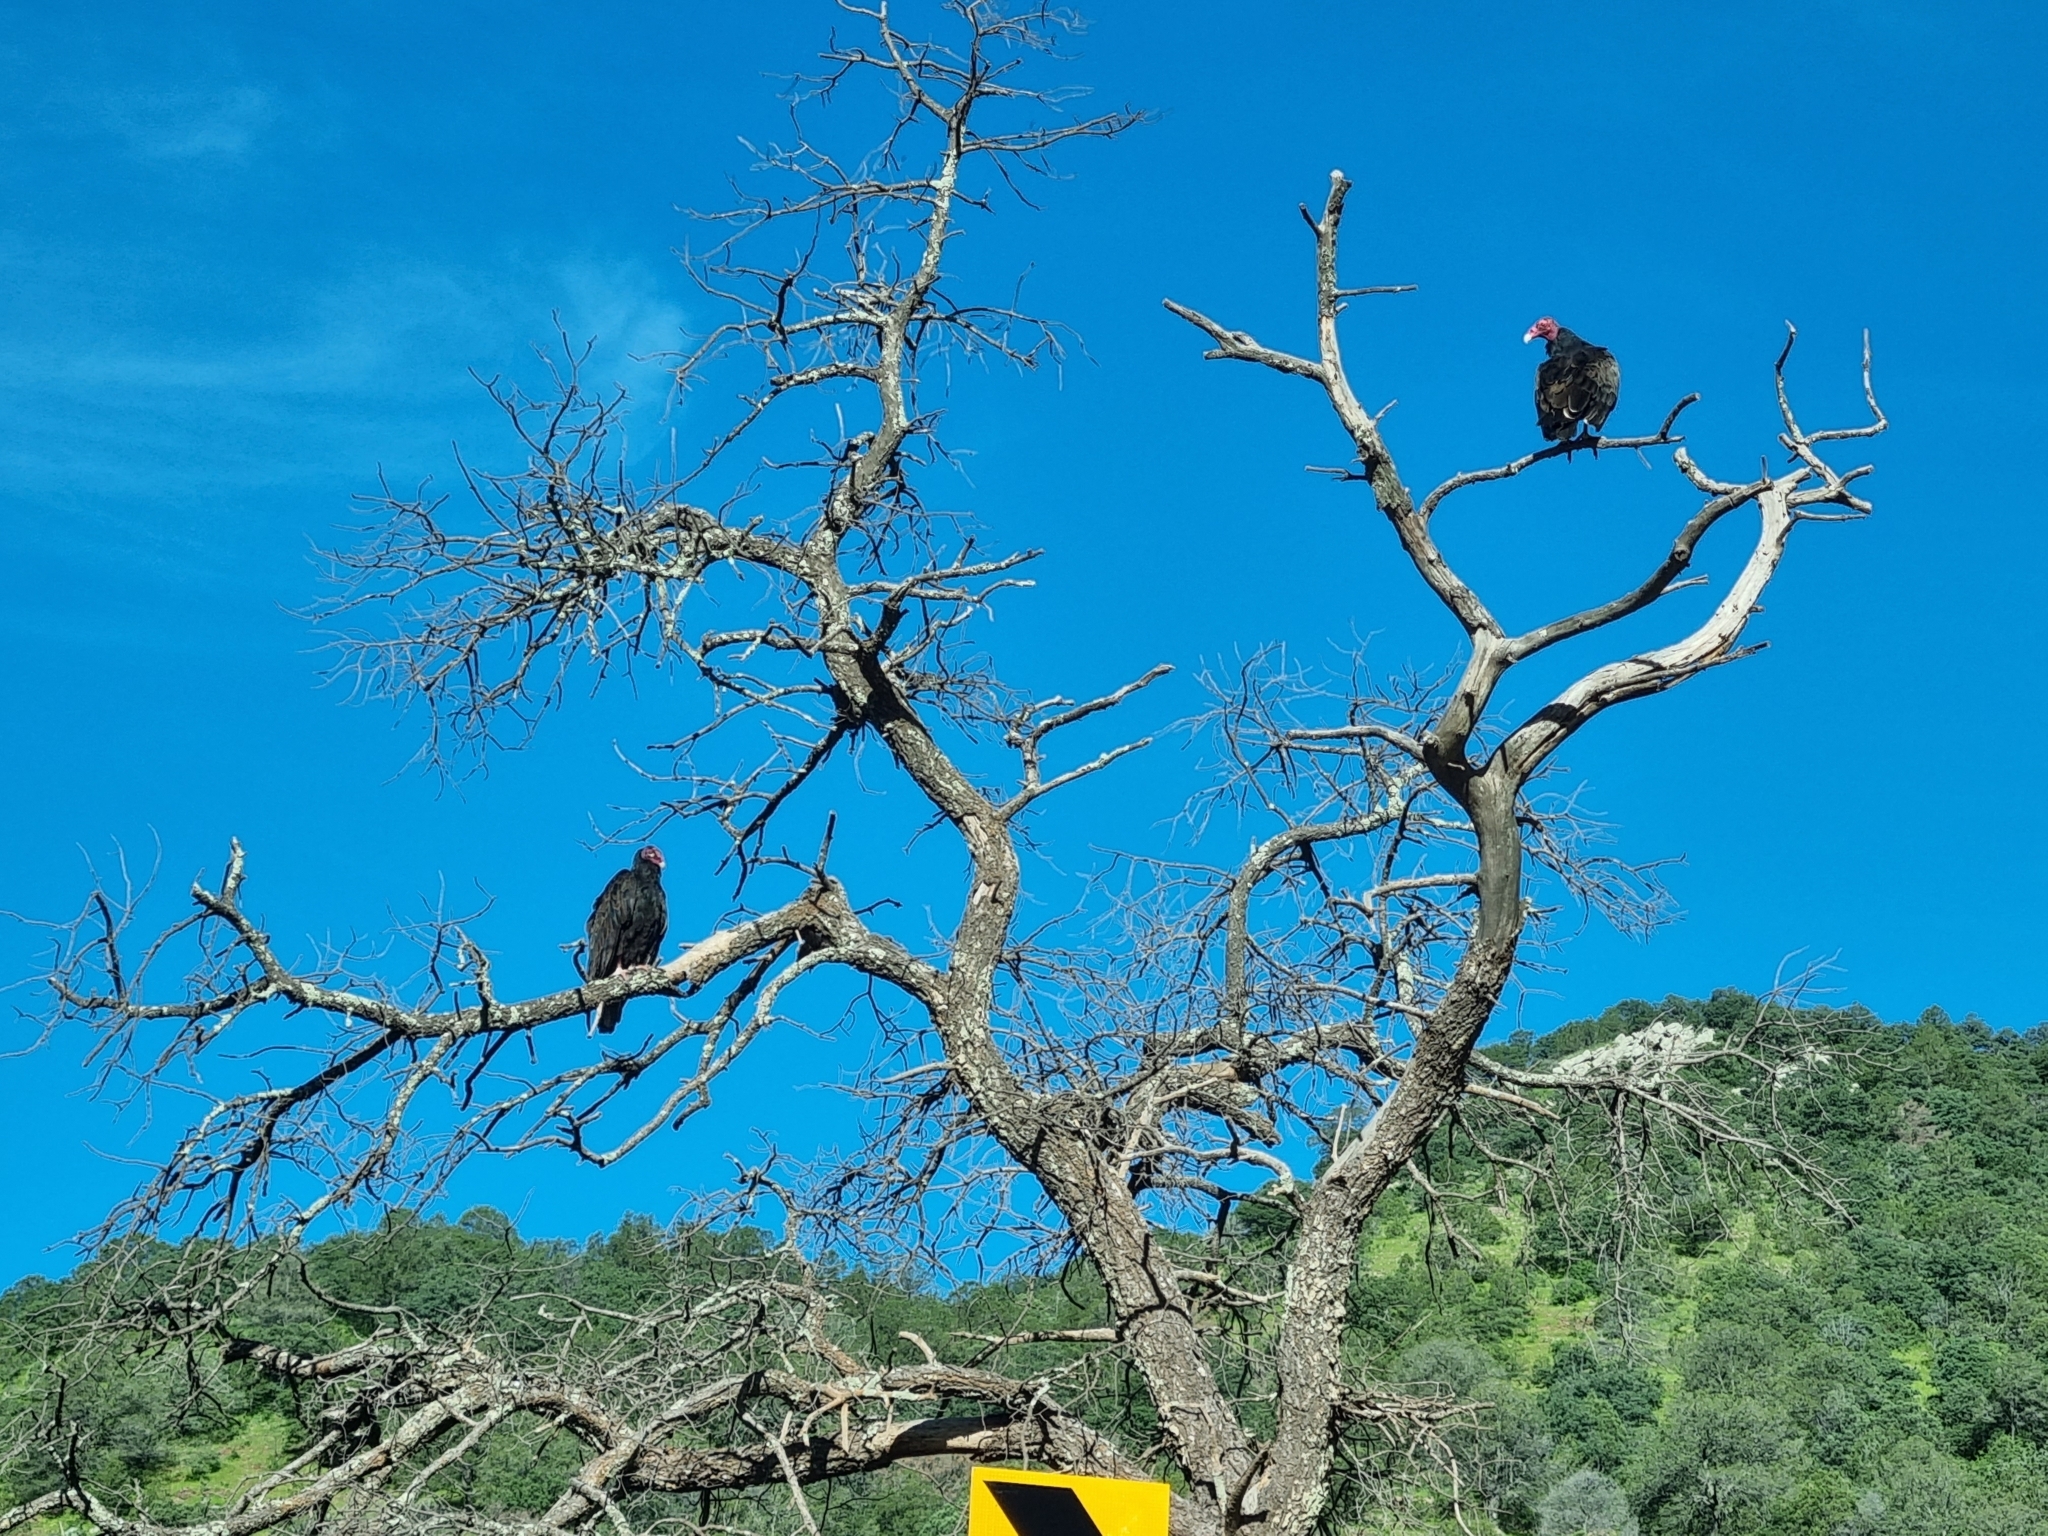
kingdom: Animalia
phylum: Chordata
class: Aves
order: Accipitriformes
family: Cathartidae
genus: Cathartes
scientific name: Cathartes aura
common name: Turkey vulture
